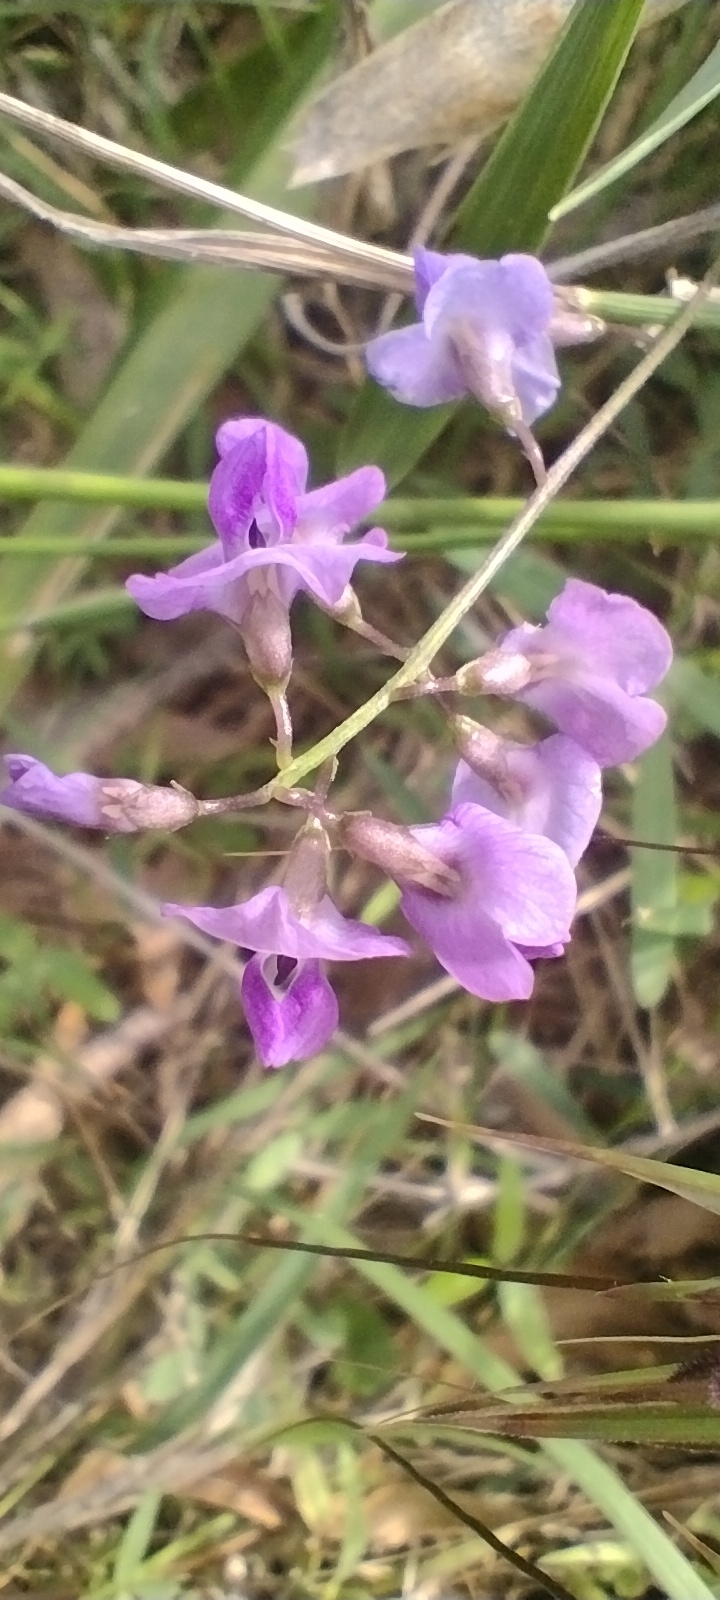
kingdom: Plantae
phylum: Tracheophyta
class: Magnoliopsida
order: Fabales
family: Fabaceae
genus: Glycine
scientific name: Glycine microphylla
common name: Small-leaf glycine
